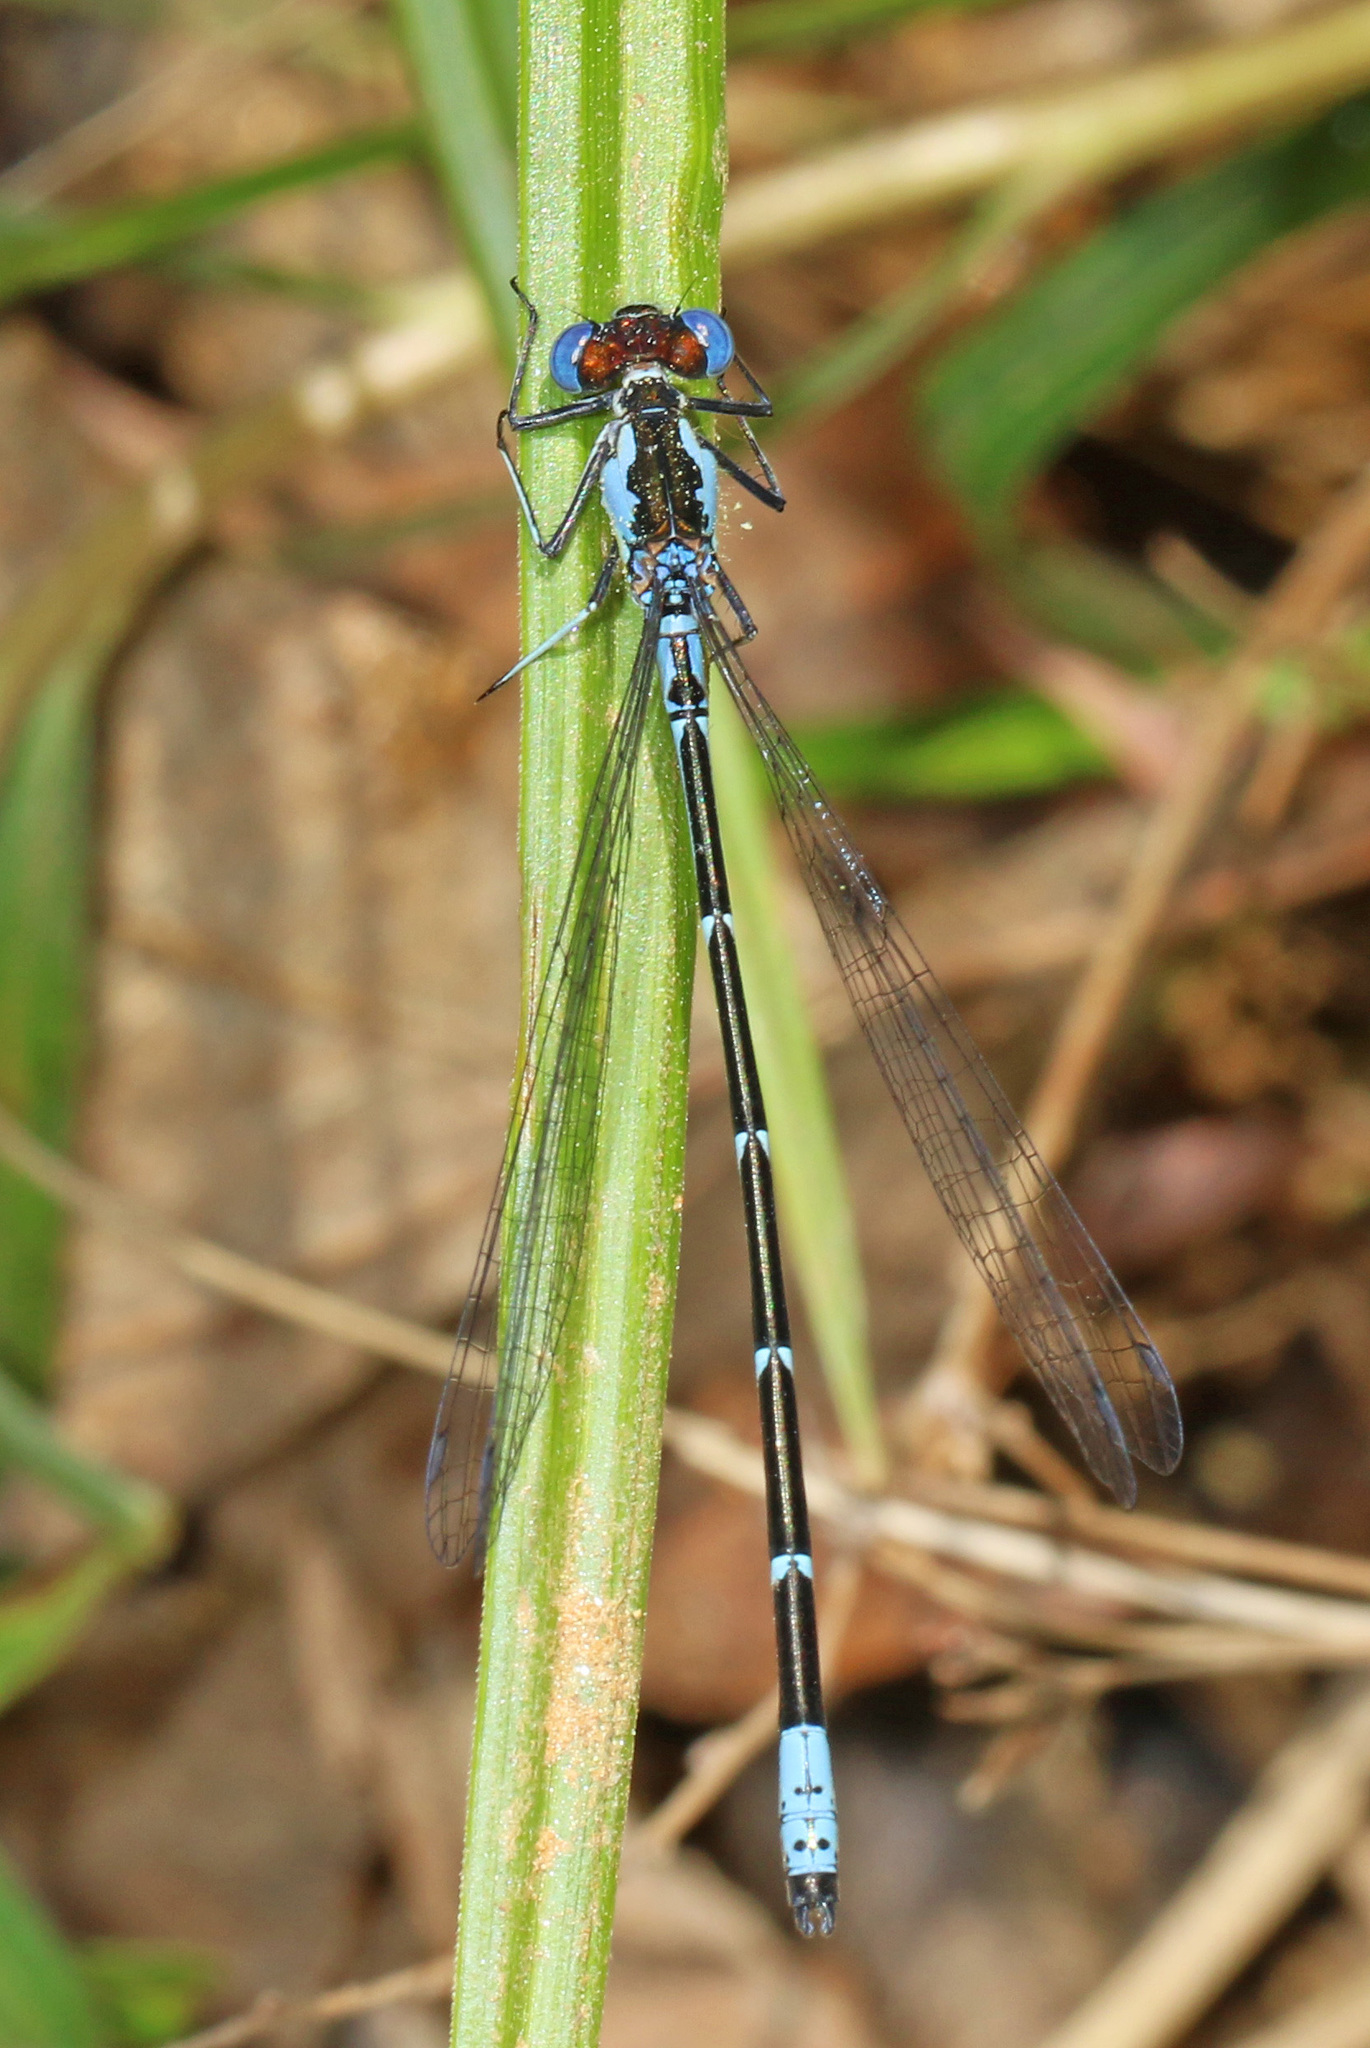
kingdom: Animalia
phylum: Arthropoda
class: Insecta
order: Odonata
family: Coenagrionidae
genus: Chromagrion
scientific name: Chromagrion conditum
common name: Aurora damsel
